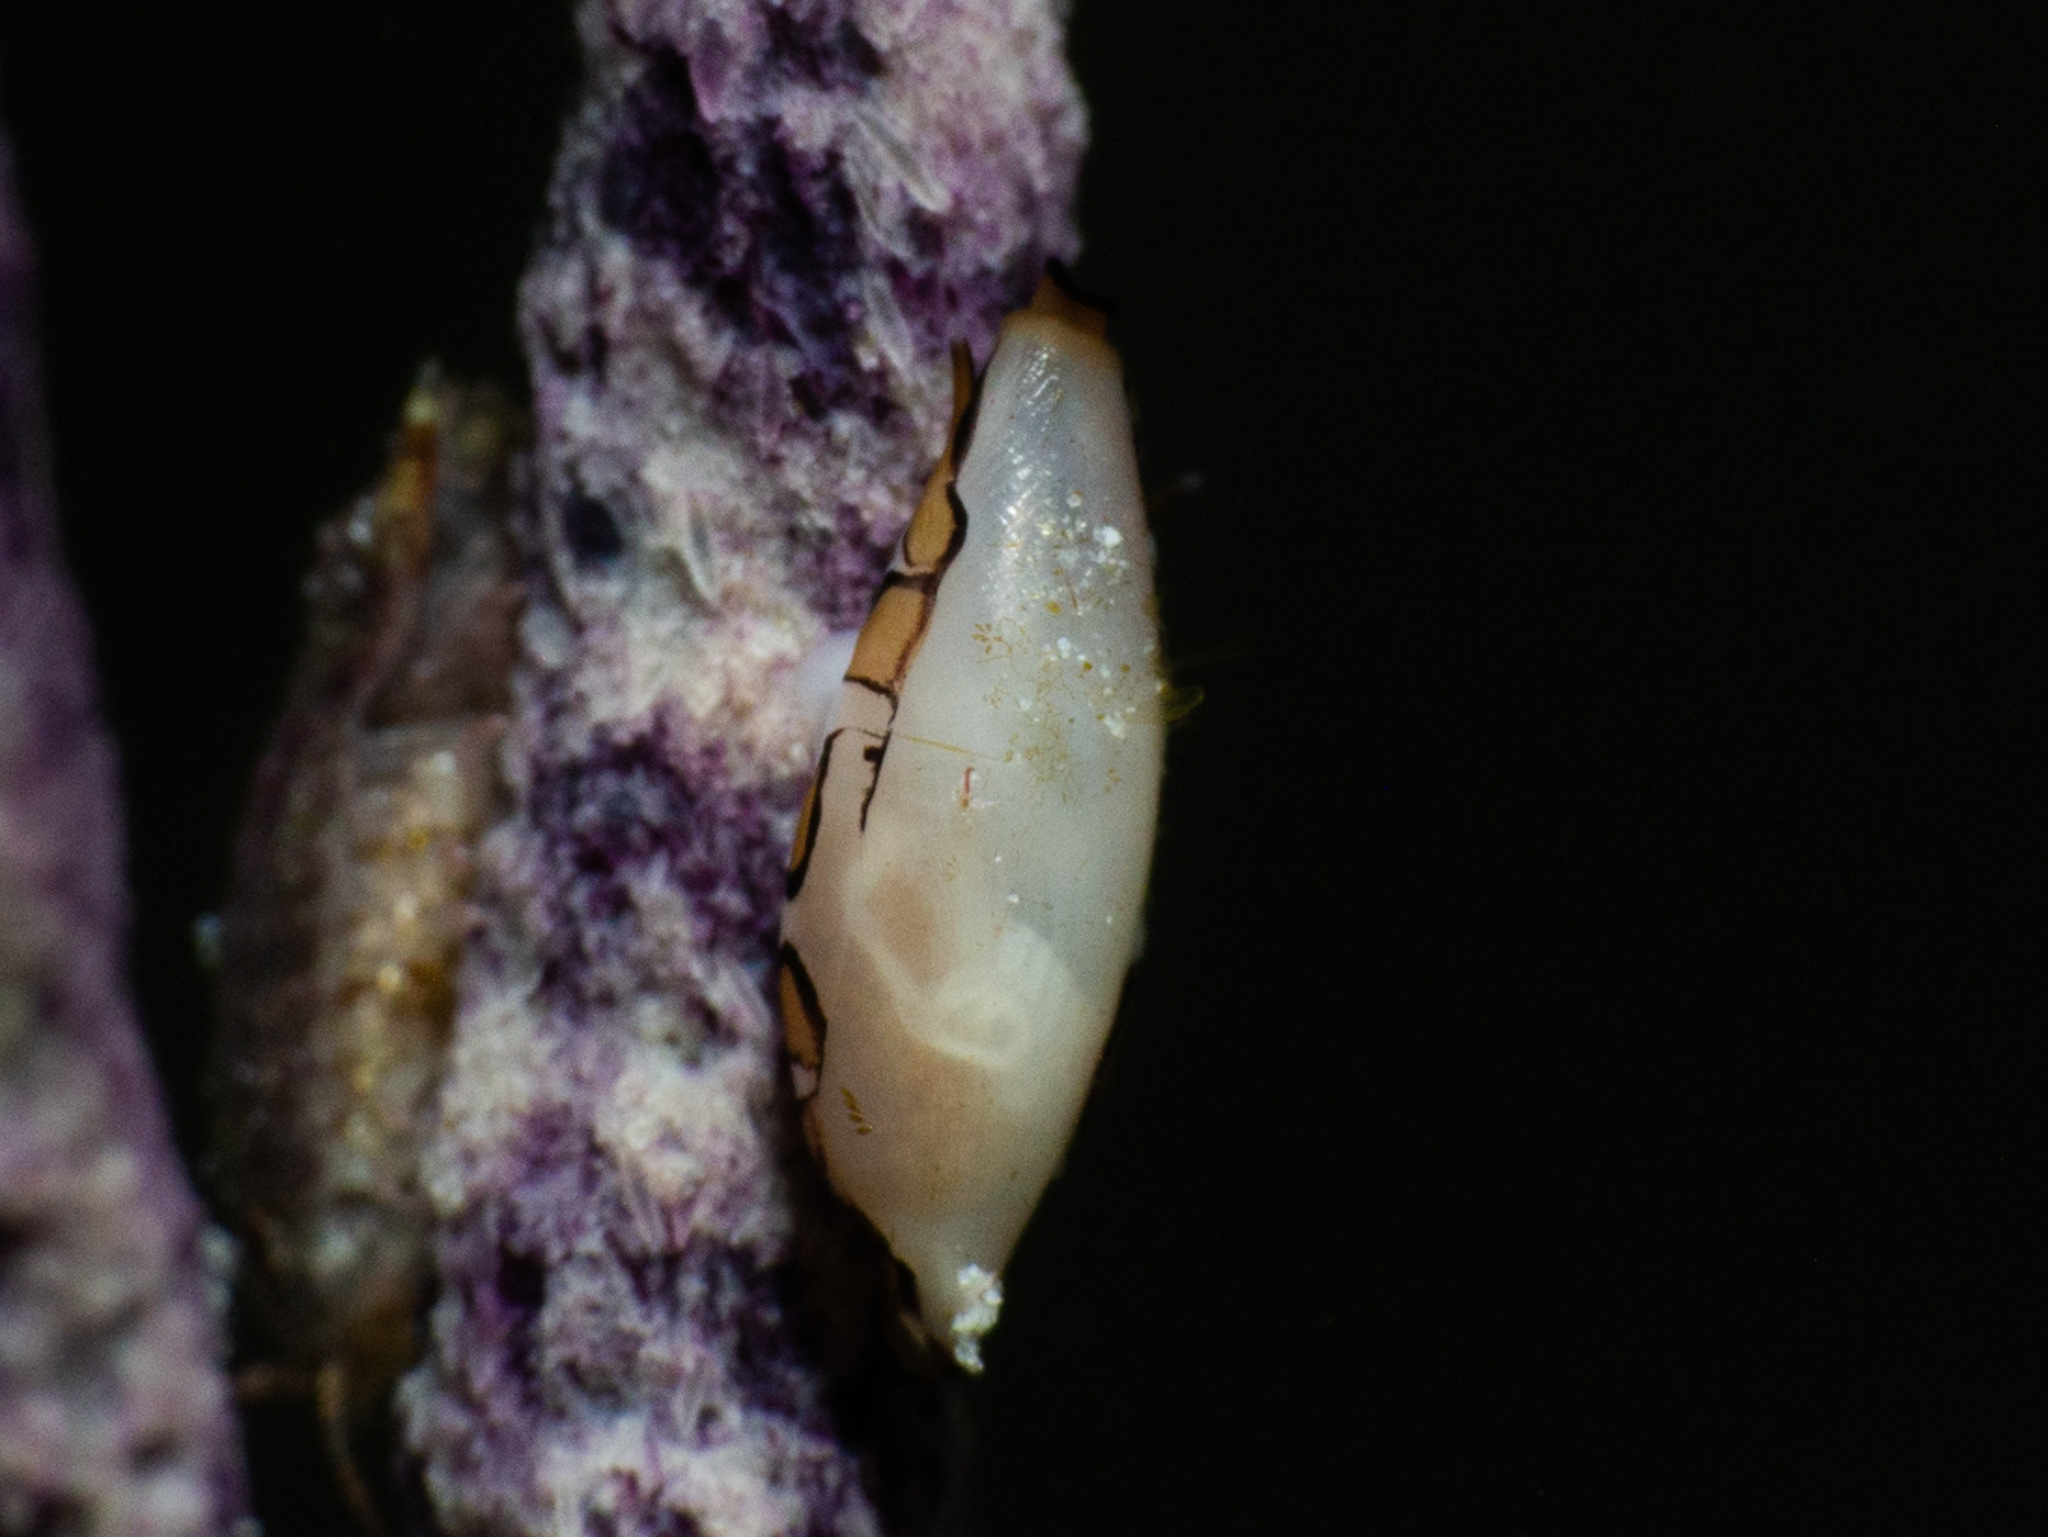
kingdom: Animalia
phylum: Mollusca
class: Gastropoda
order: Littorinimorpha
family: Ovulidae
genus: Cyphoma
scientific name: Cyphoma gibbosum
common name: Flamingo tongue
